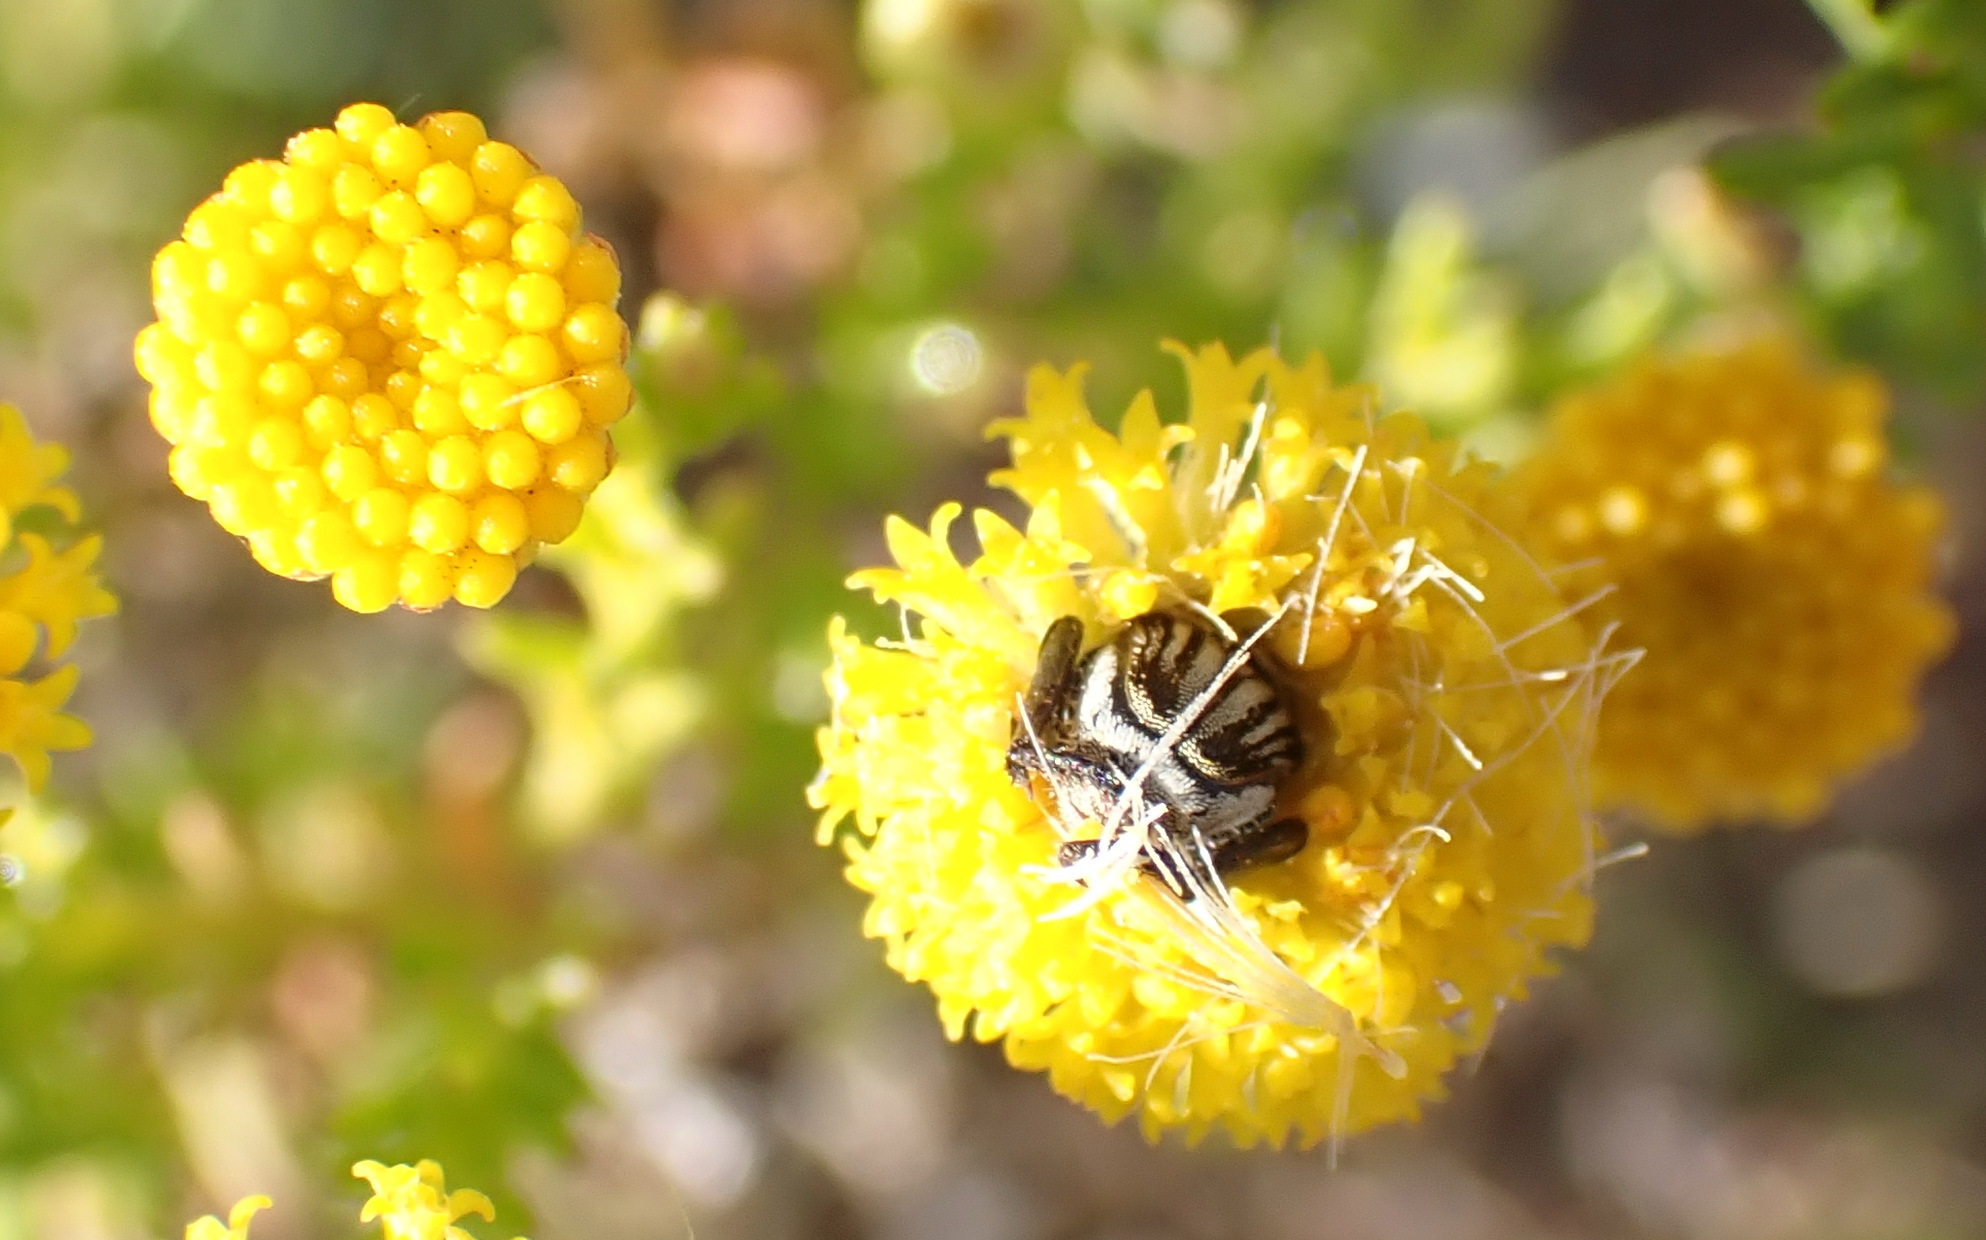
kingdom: Plantae
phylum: Tracheophyta
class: Magnoliopsida
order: Asterales
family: Asteraceae
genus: Chrysocoma
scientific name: Chrysocoma ciliata
